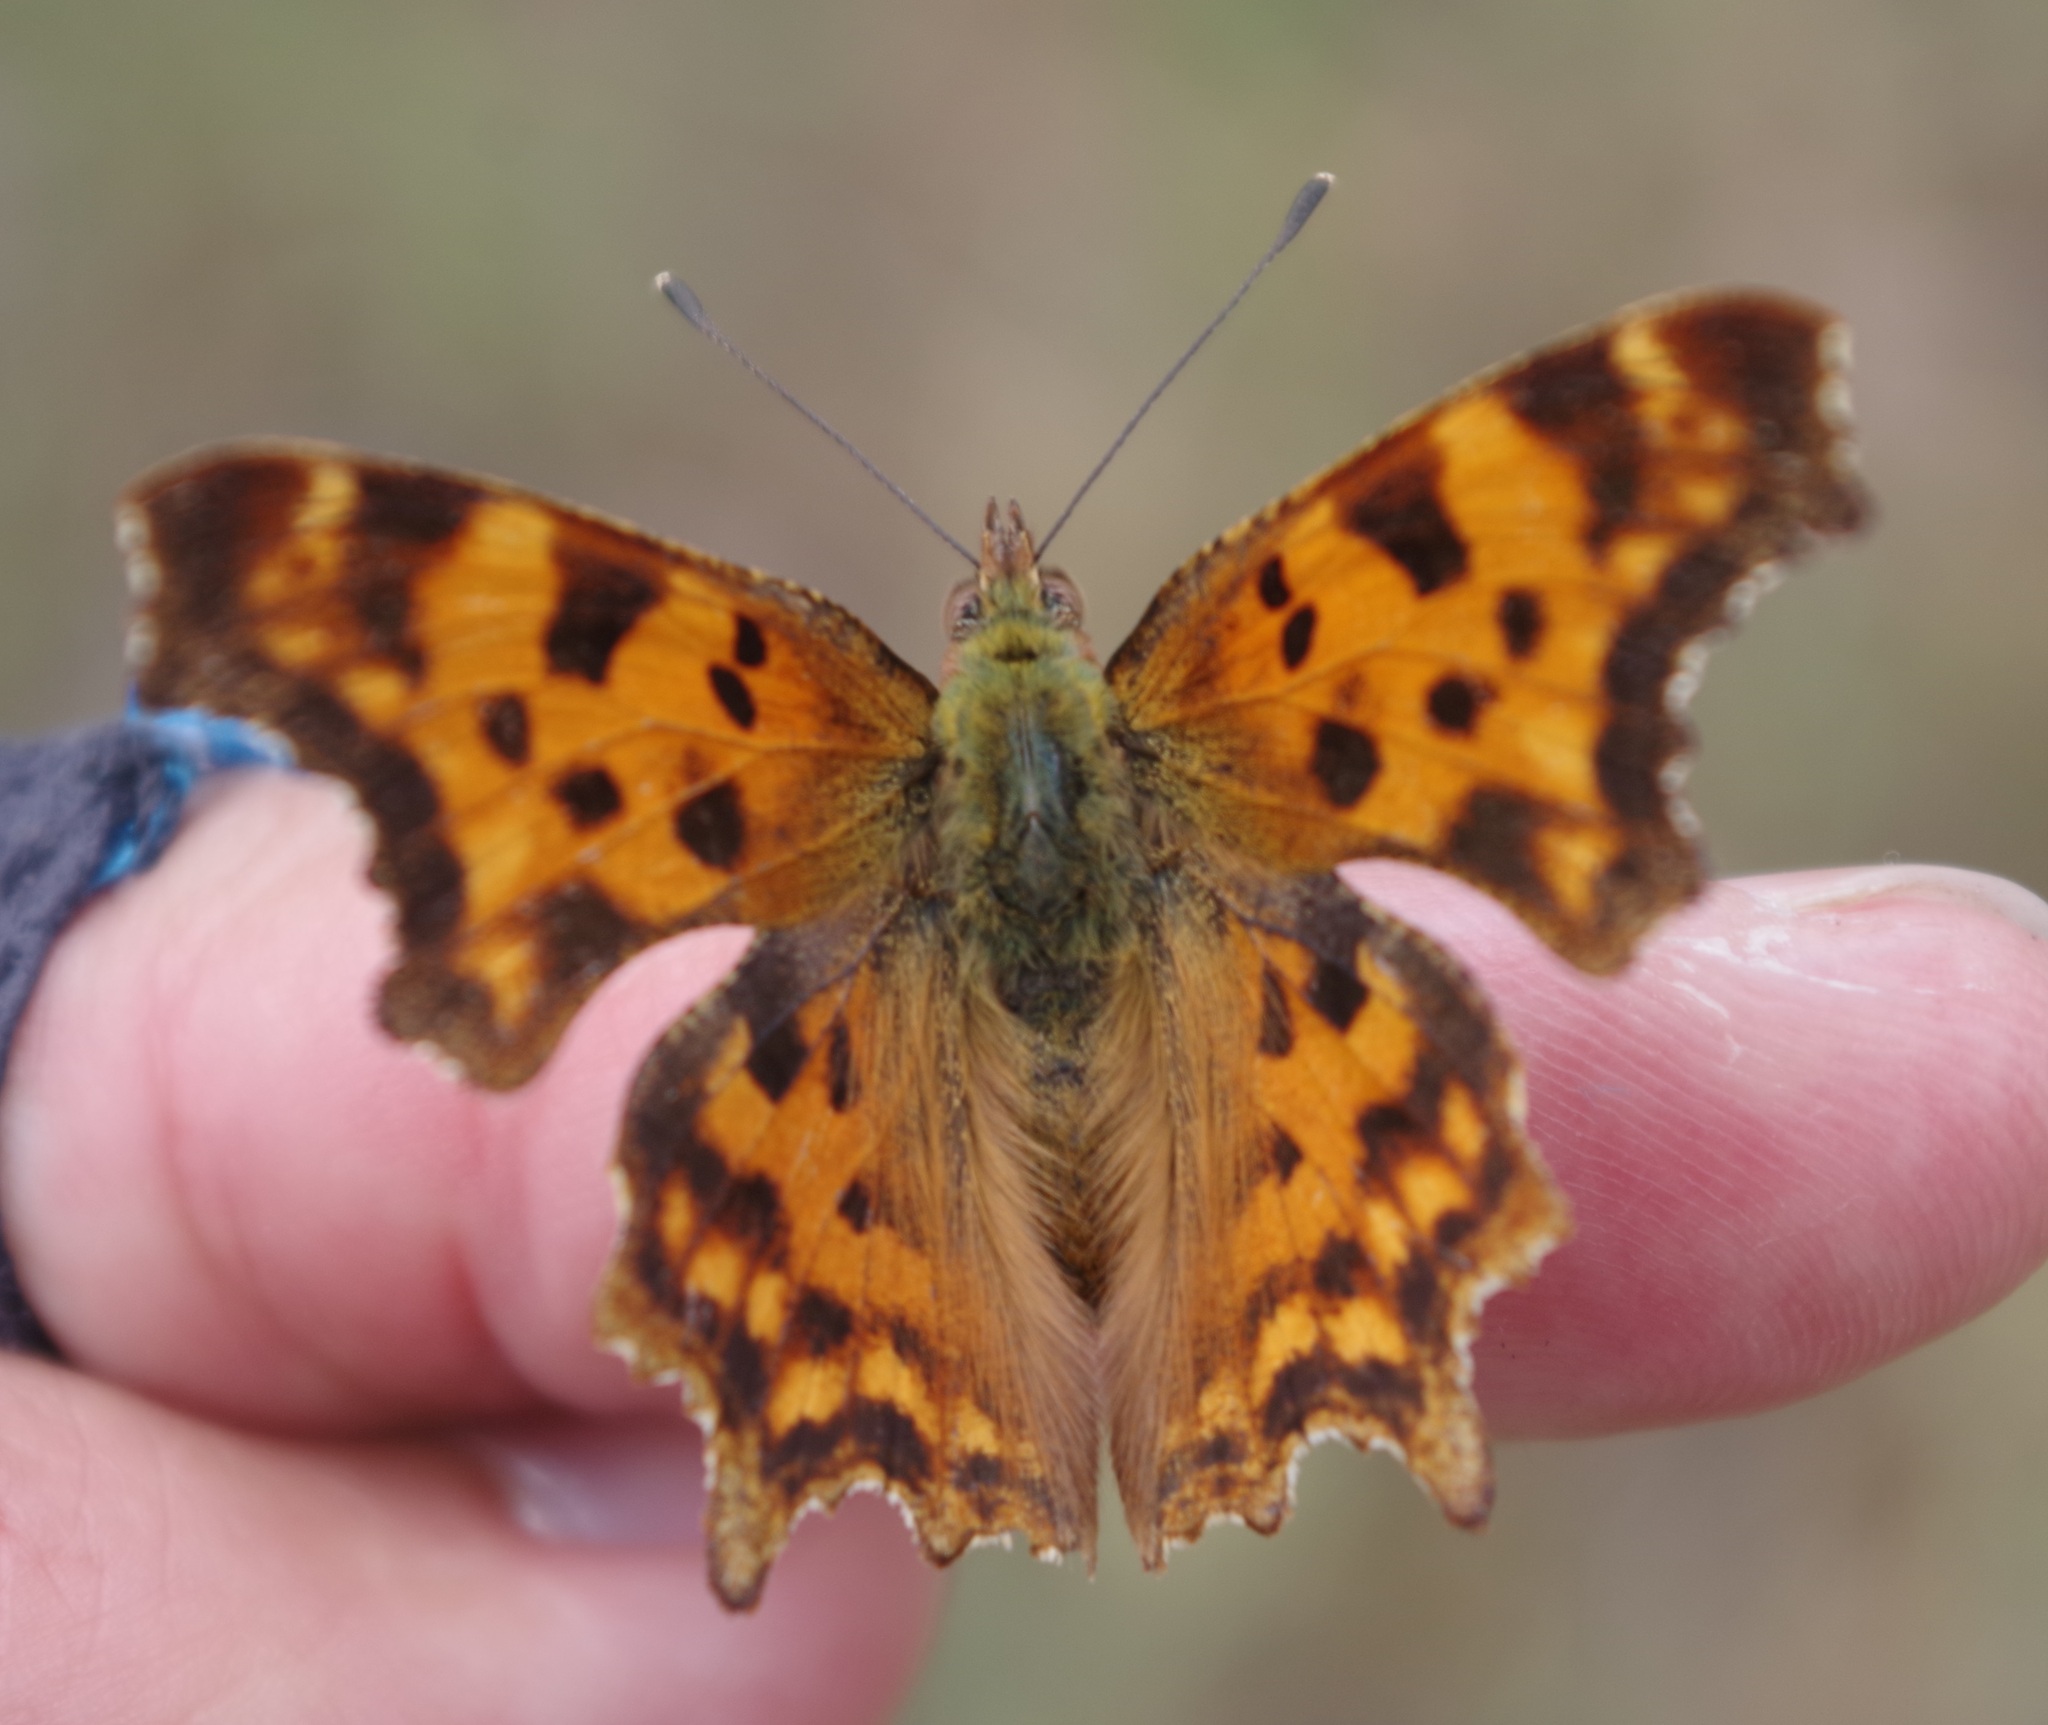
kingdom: Animalia
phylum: Arthropoda
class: Insecta
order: Lepidoptera
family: Nymphalidae
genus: Polygonia
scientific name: Polygonia c-album
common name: Comma
